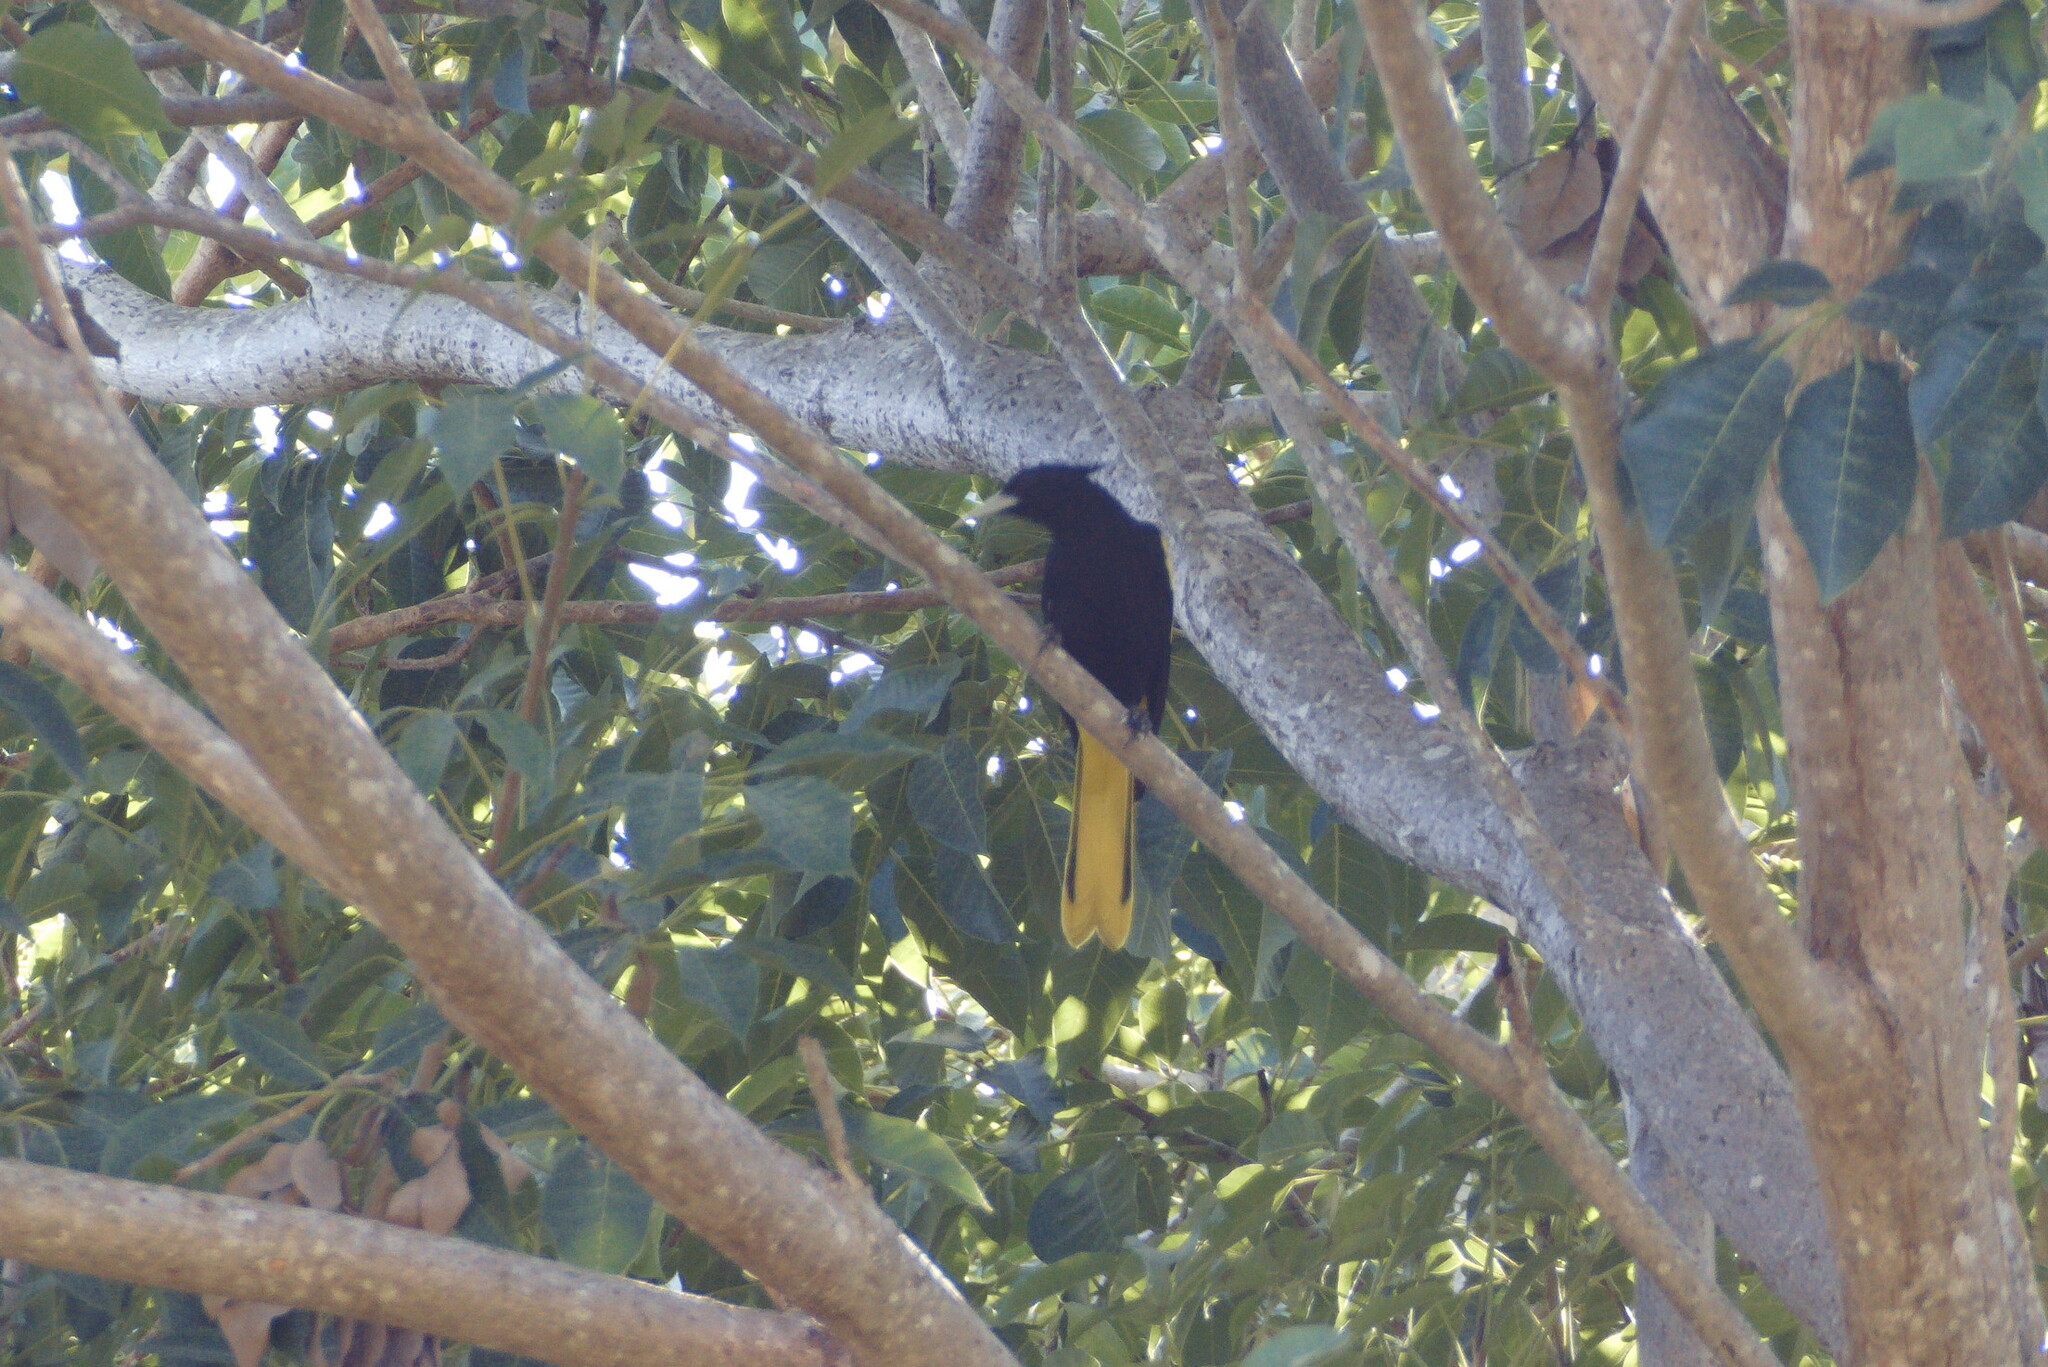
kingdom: Animalia
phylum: Chordata
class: Aves
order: Passeriformes
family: Icteridae
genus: Cacicus
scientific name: Cacicus melanicterus
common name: Yellow-winged cacique
